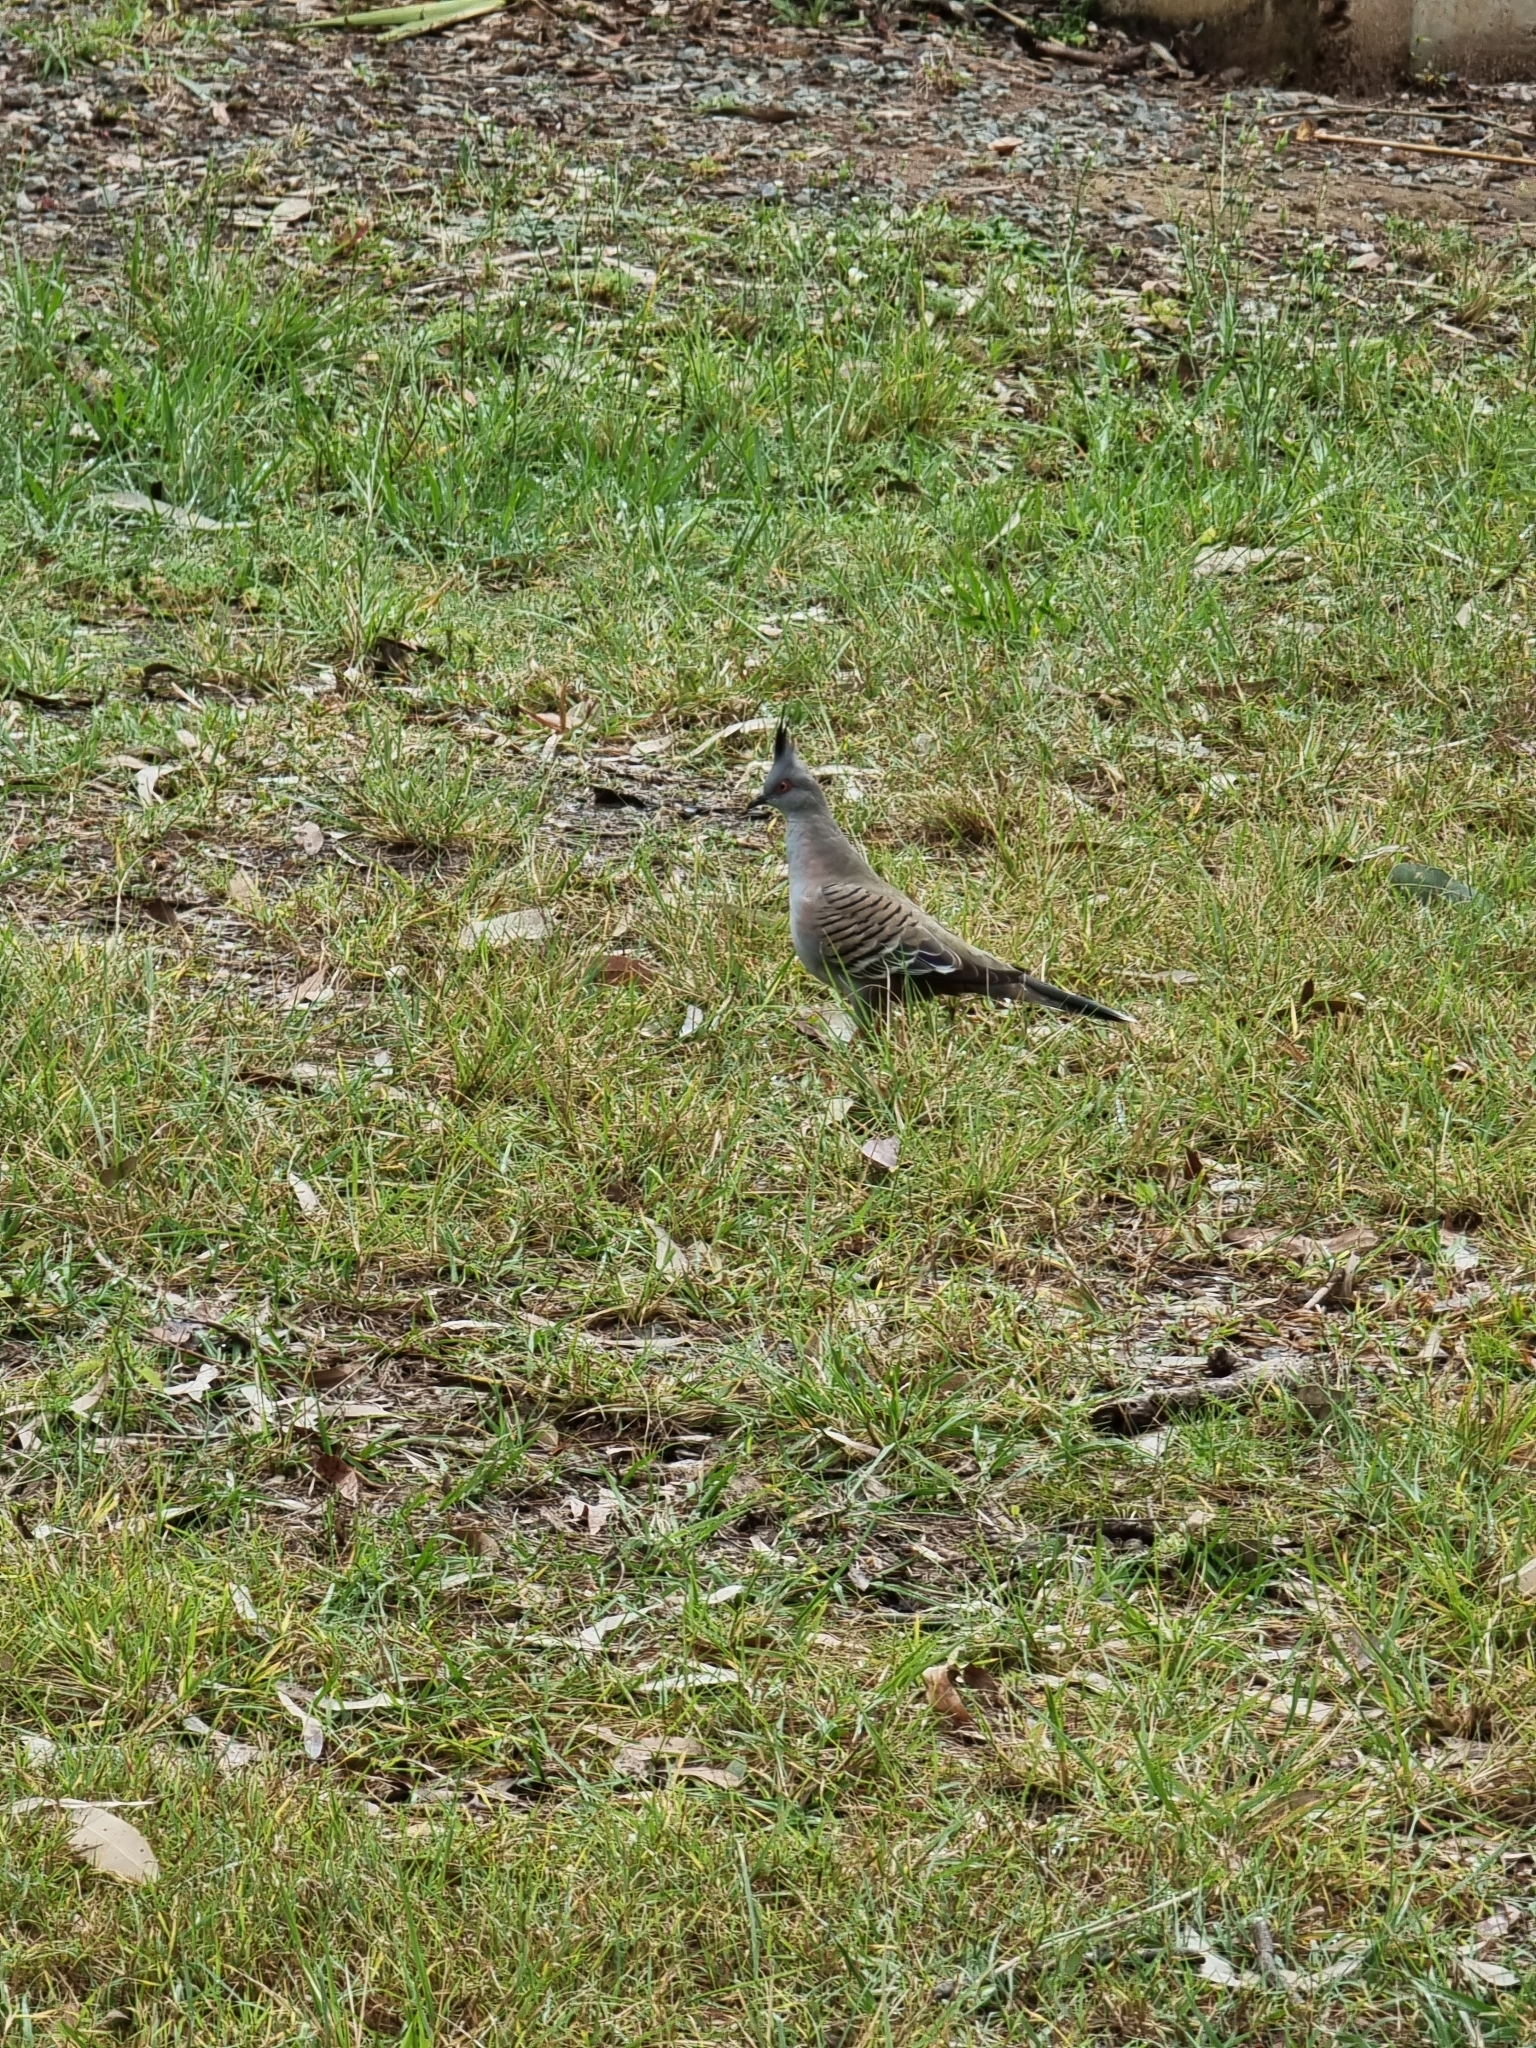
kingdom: Animalia
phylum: Chordata
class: Aves
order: Columbiformes
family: Columbidae
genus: Ocyphaps
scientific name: Ocyphaps lophotes
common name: Crested pigeon
